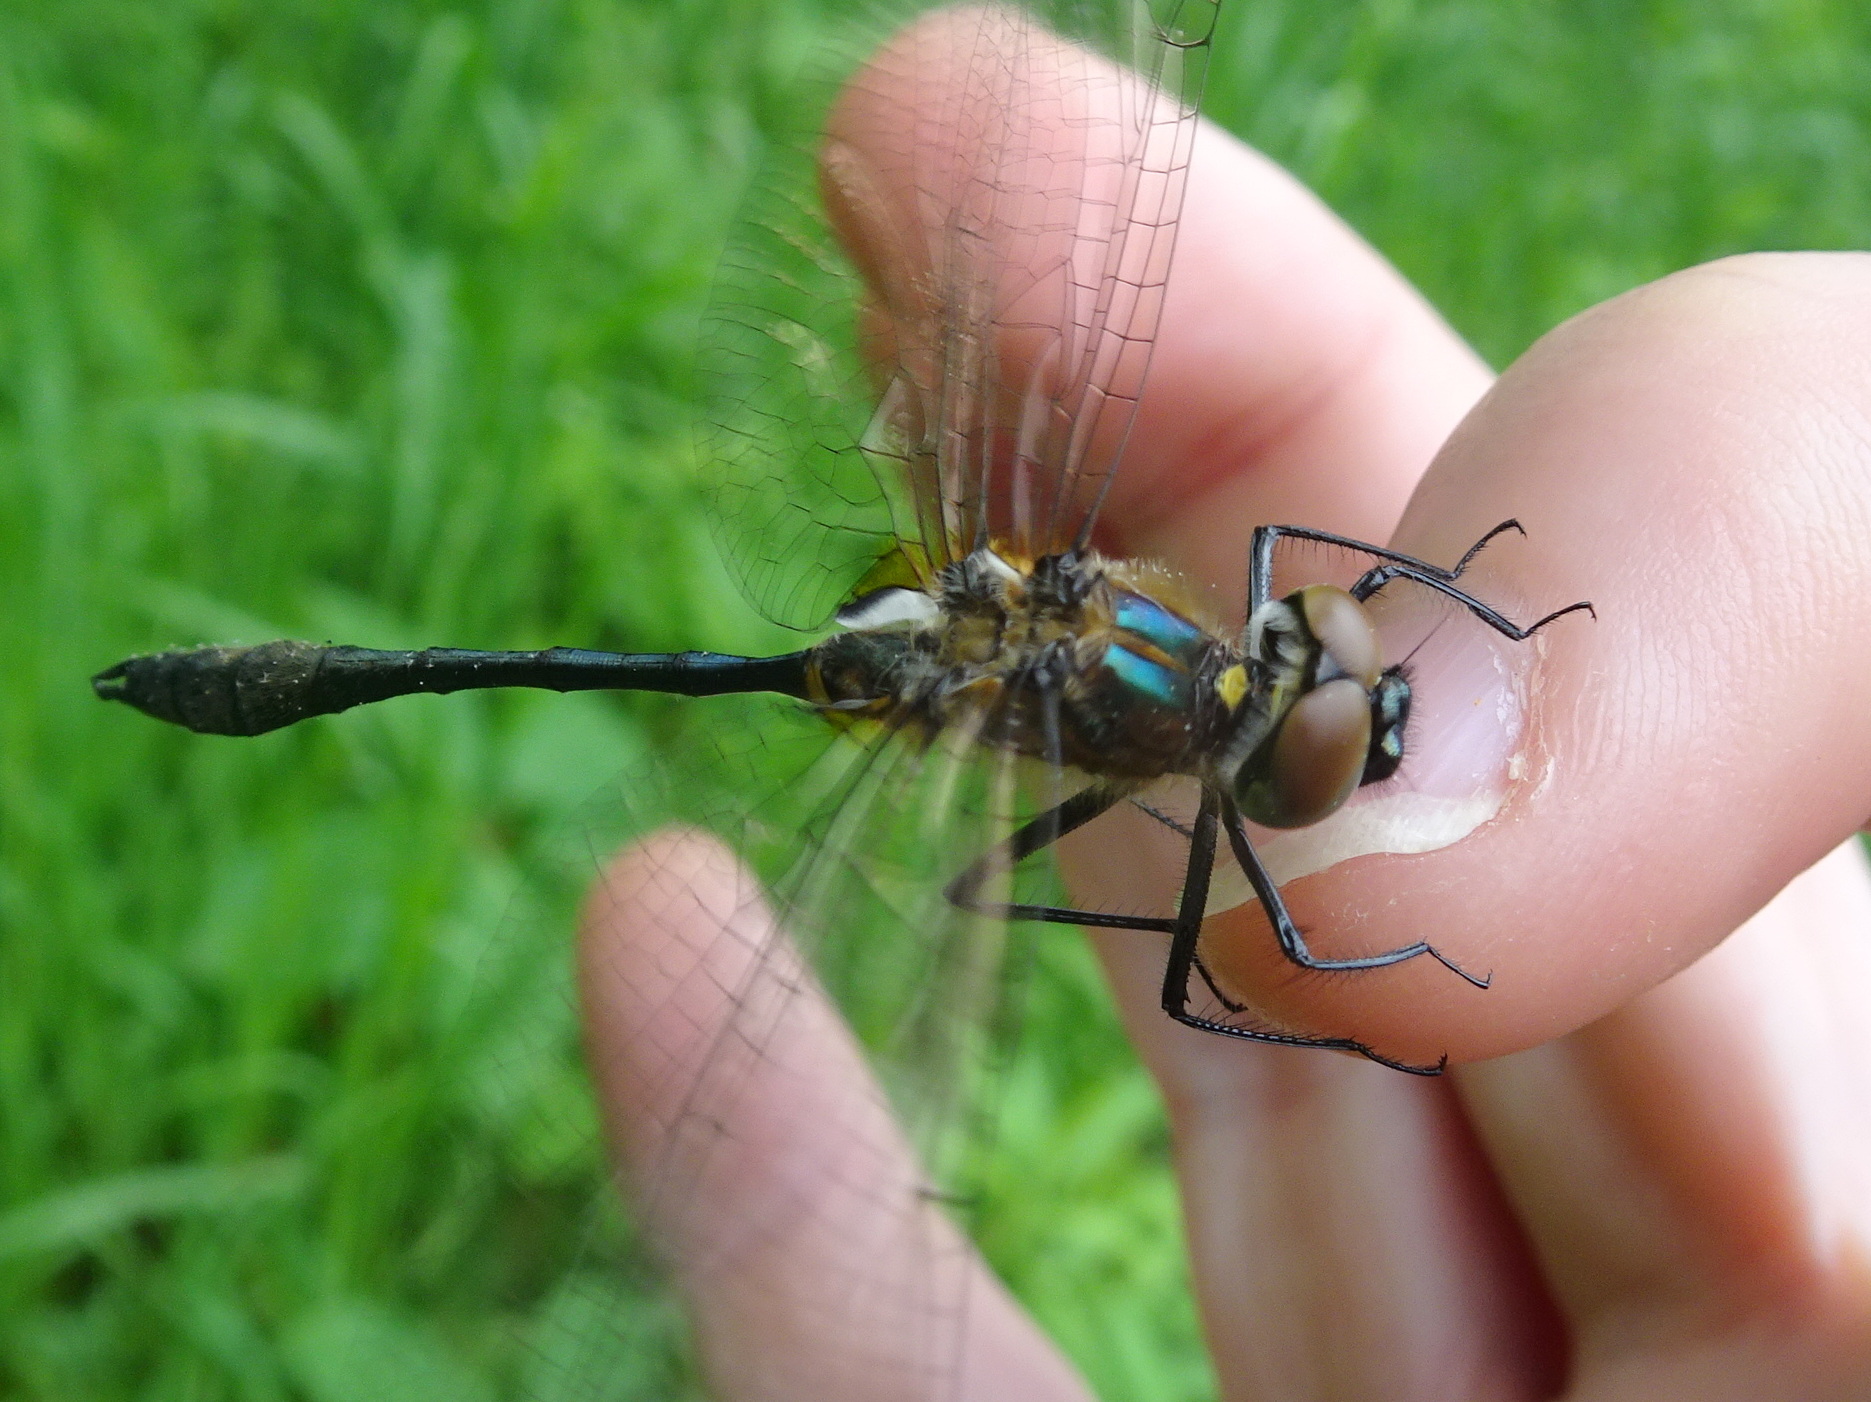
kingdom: Animalia
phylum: Arthropoda
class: Insecta
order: Odonata
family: Corduliidae
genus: Dorocordulia
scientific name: Dorocordulia libera
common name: Racket-tailed emerald
